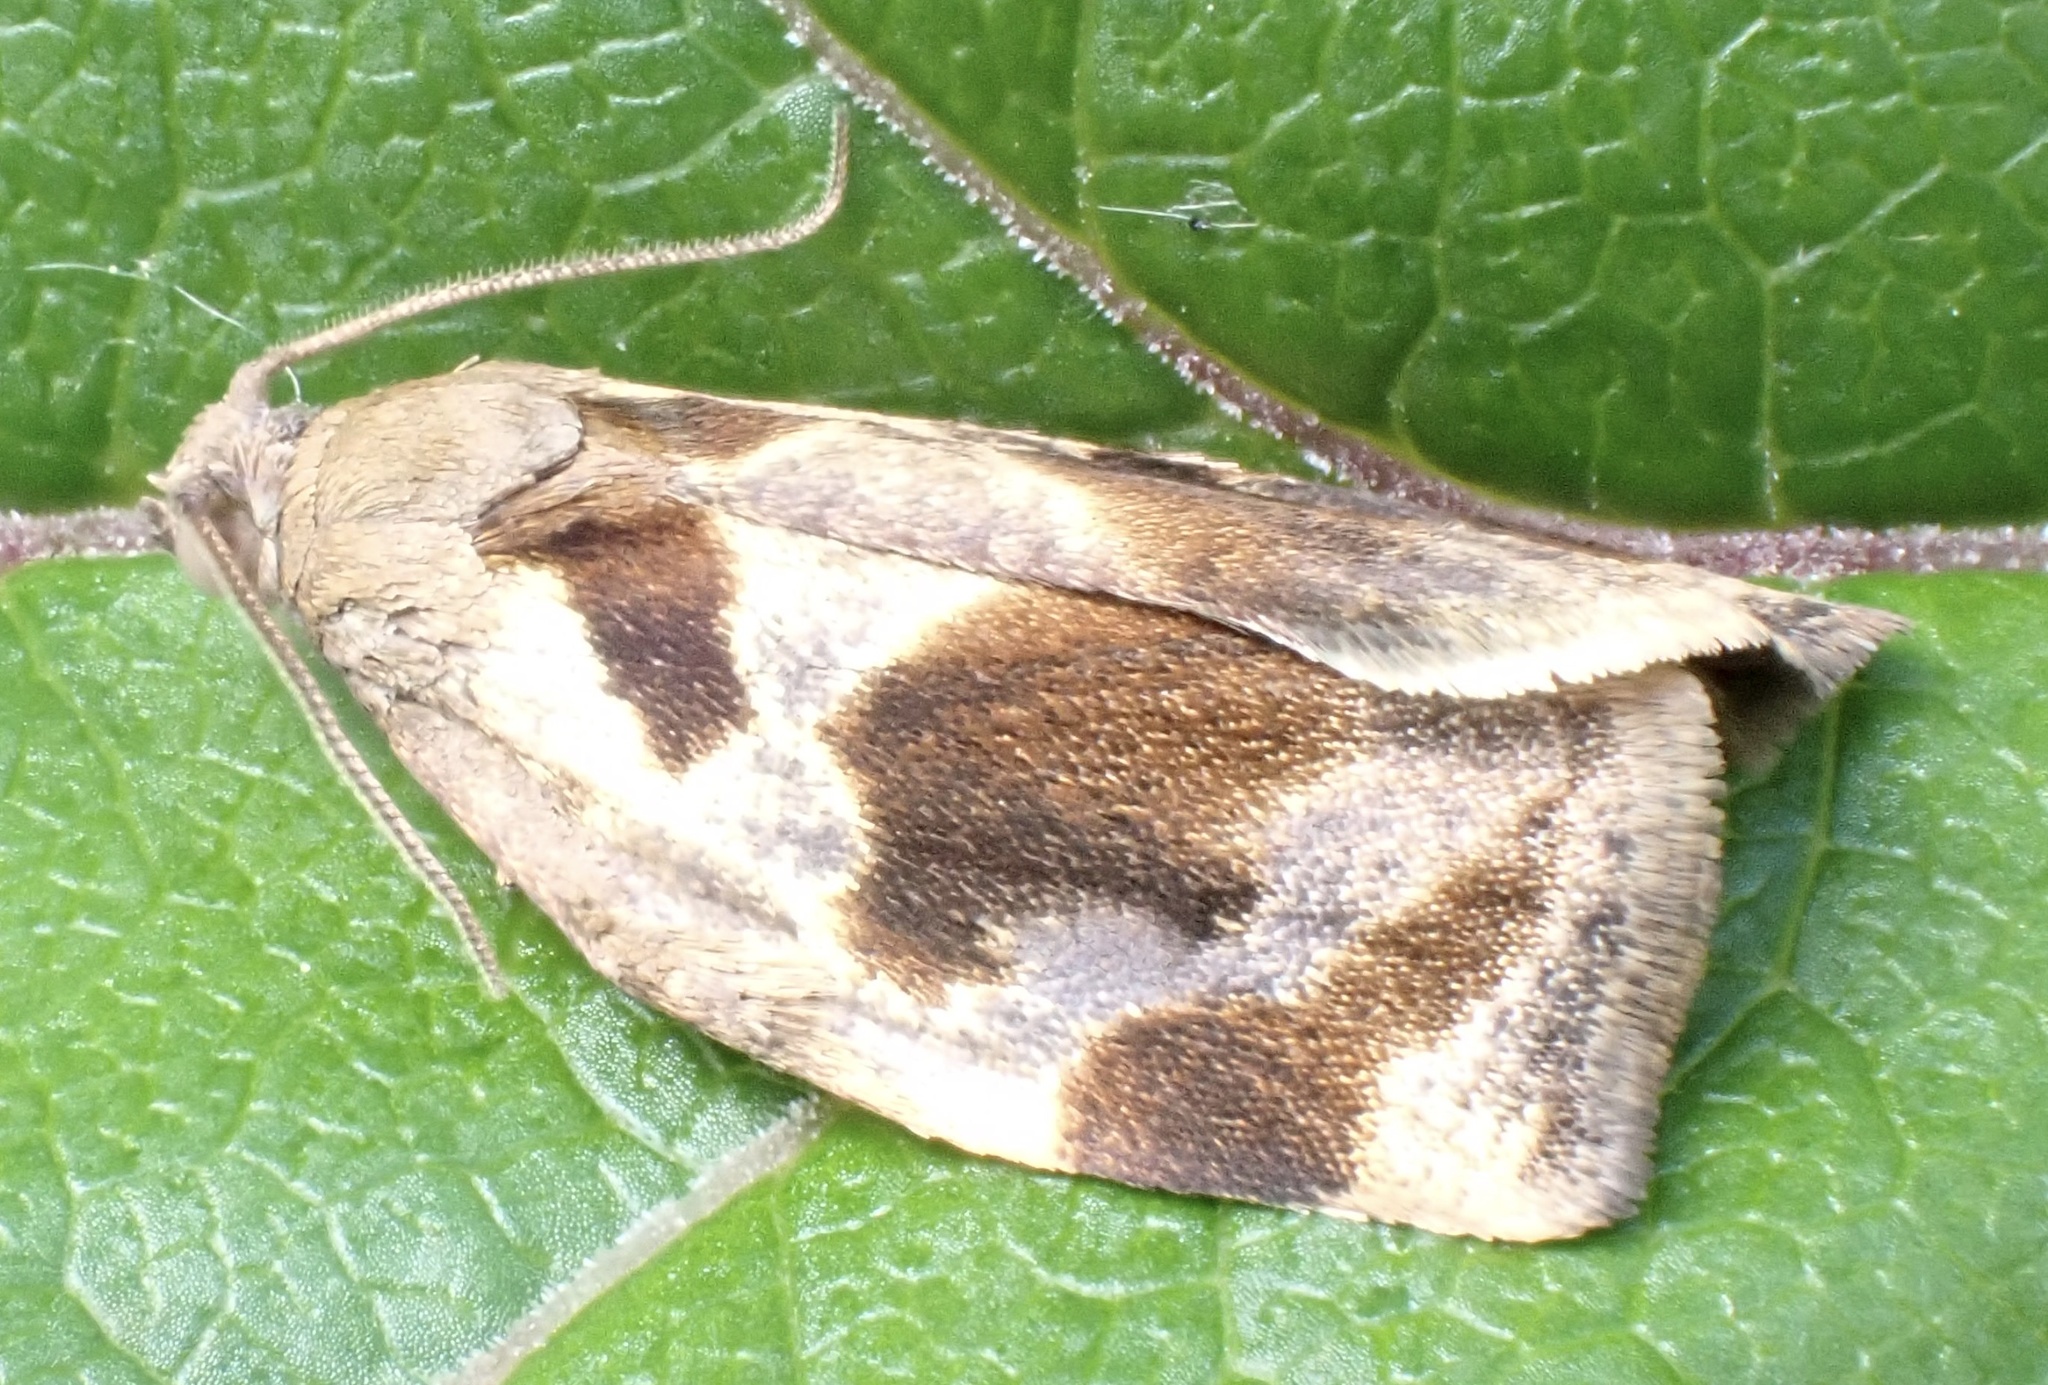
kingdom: Animalia
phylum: Arthropoda
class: Insecta
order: Lepidoptera
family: Tortricidae
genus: Archips
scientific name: Archips crataegana
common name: Brown oak tortrix
